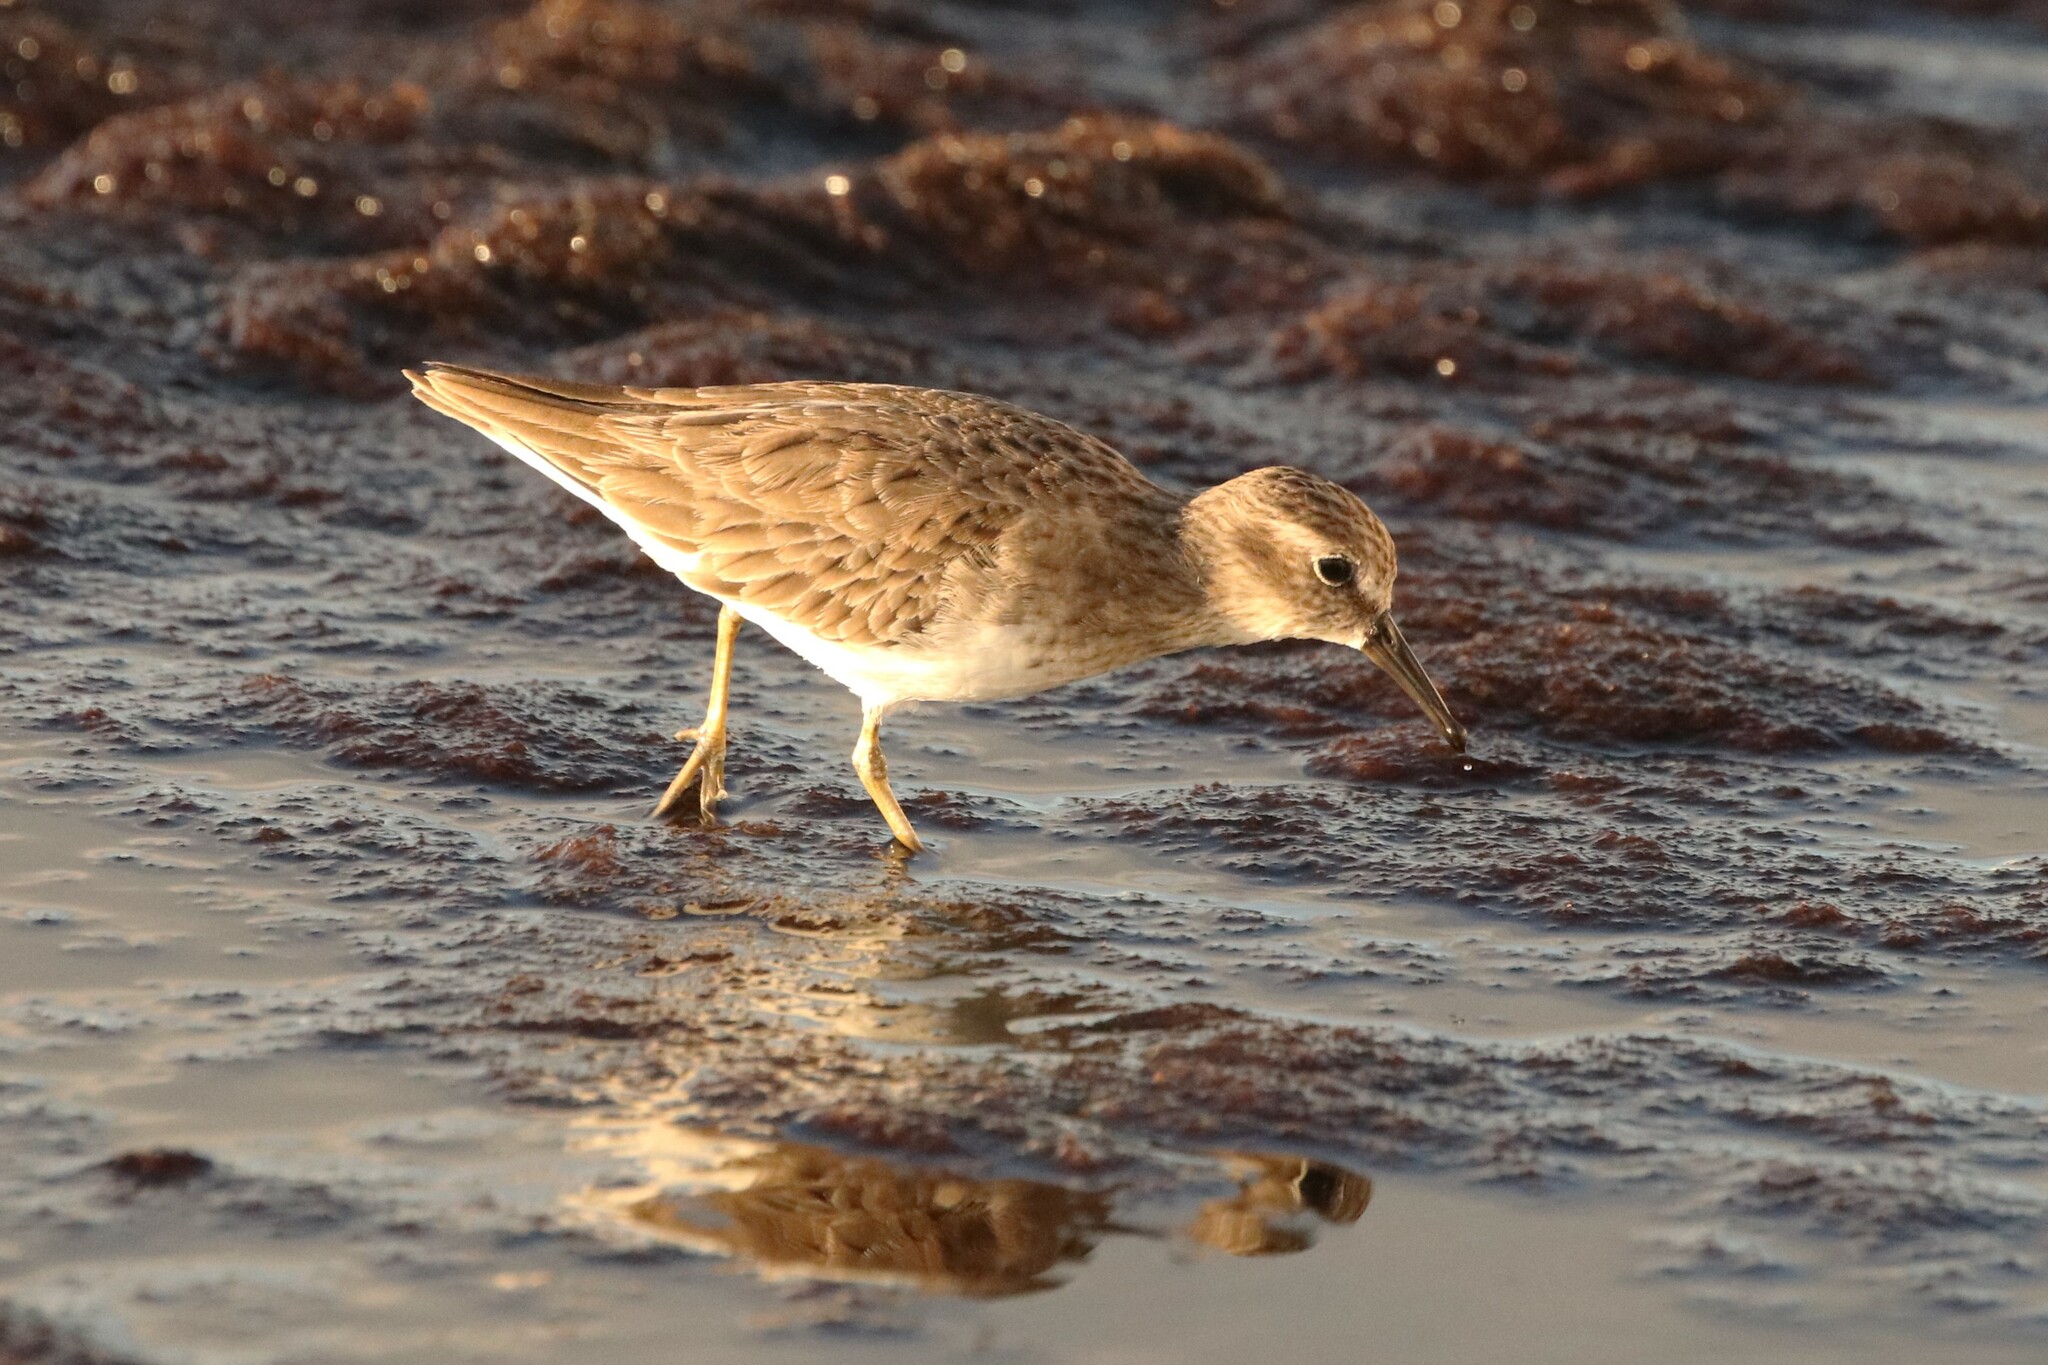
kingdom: Animalia
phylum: Chordata
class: Aves
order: Charadriiformes
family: Scolopacidae
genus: Calidris
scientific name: Calidris minutilla
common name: Least sandpiper
